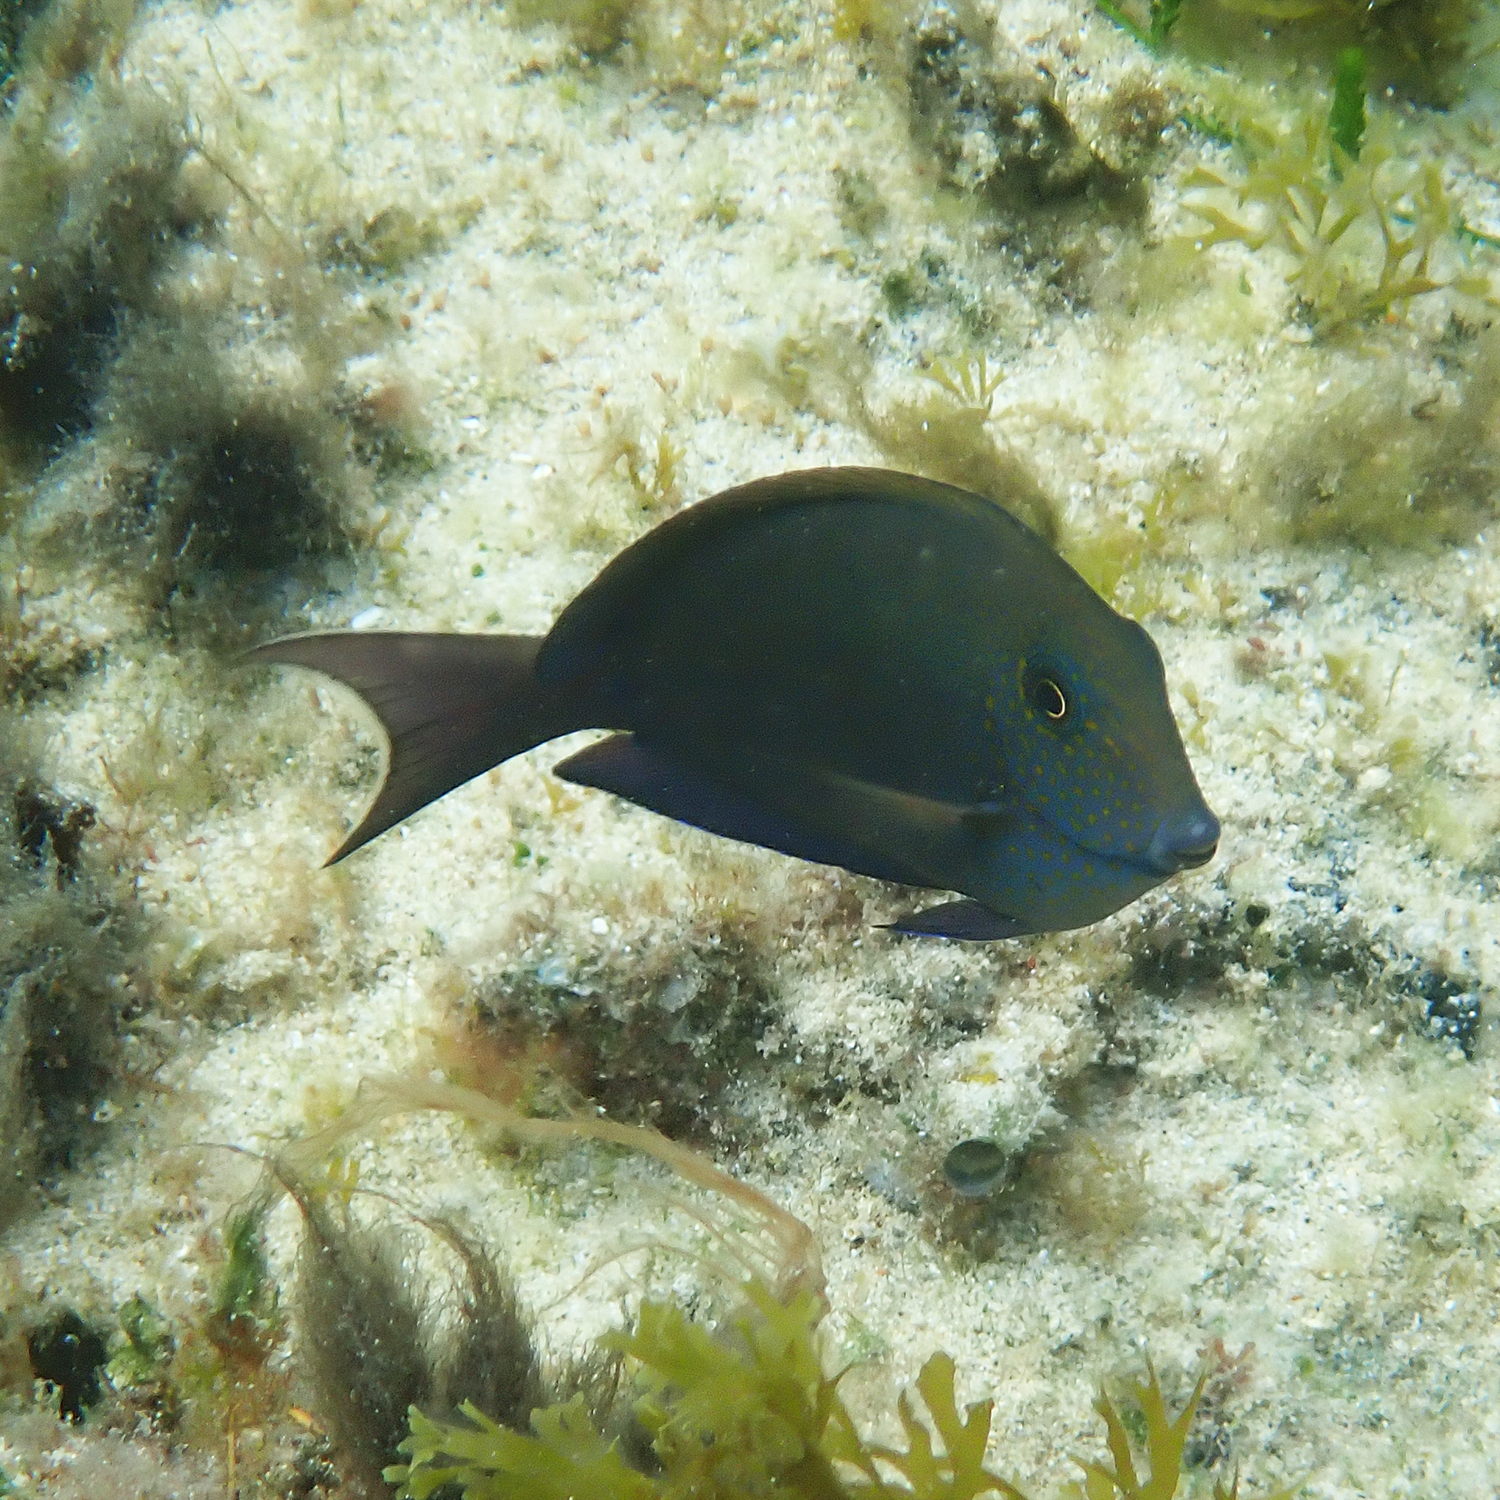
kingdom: Animalia
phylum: Chordata
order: Perciformes
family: Acanthuridae
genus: Acanthurus
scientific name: Acanthurus nigrofuscus
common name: Blackspot surgeonfish
